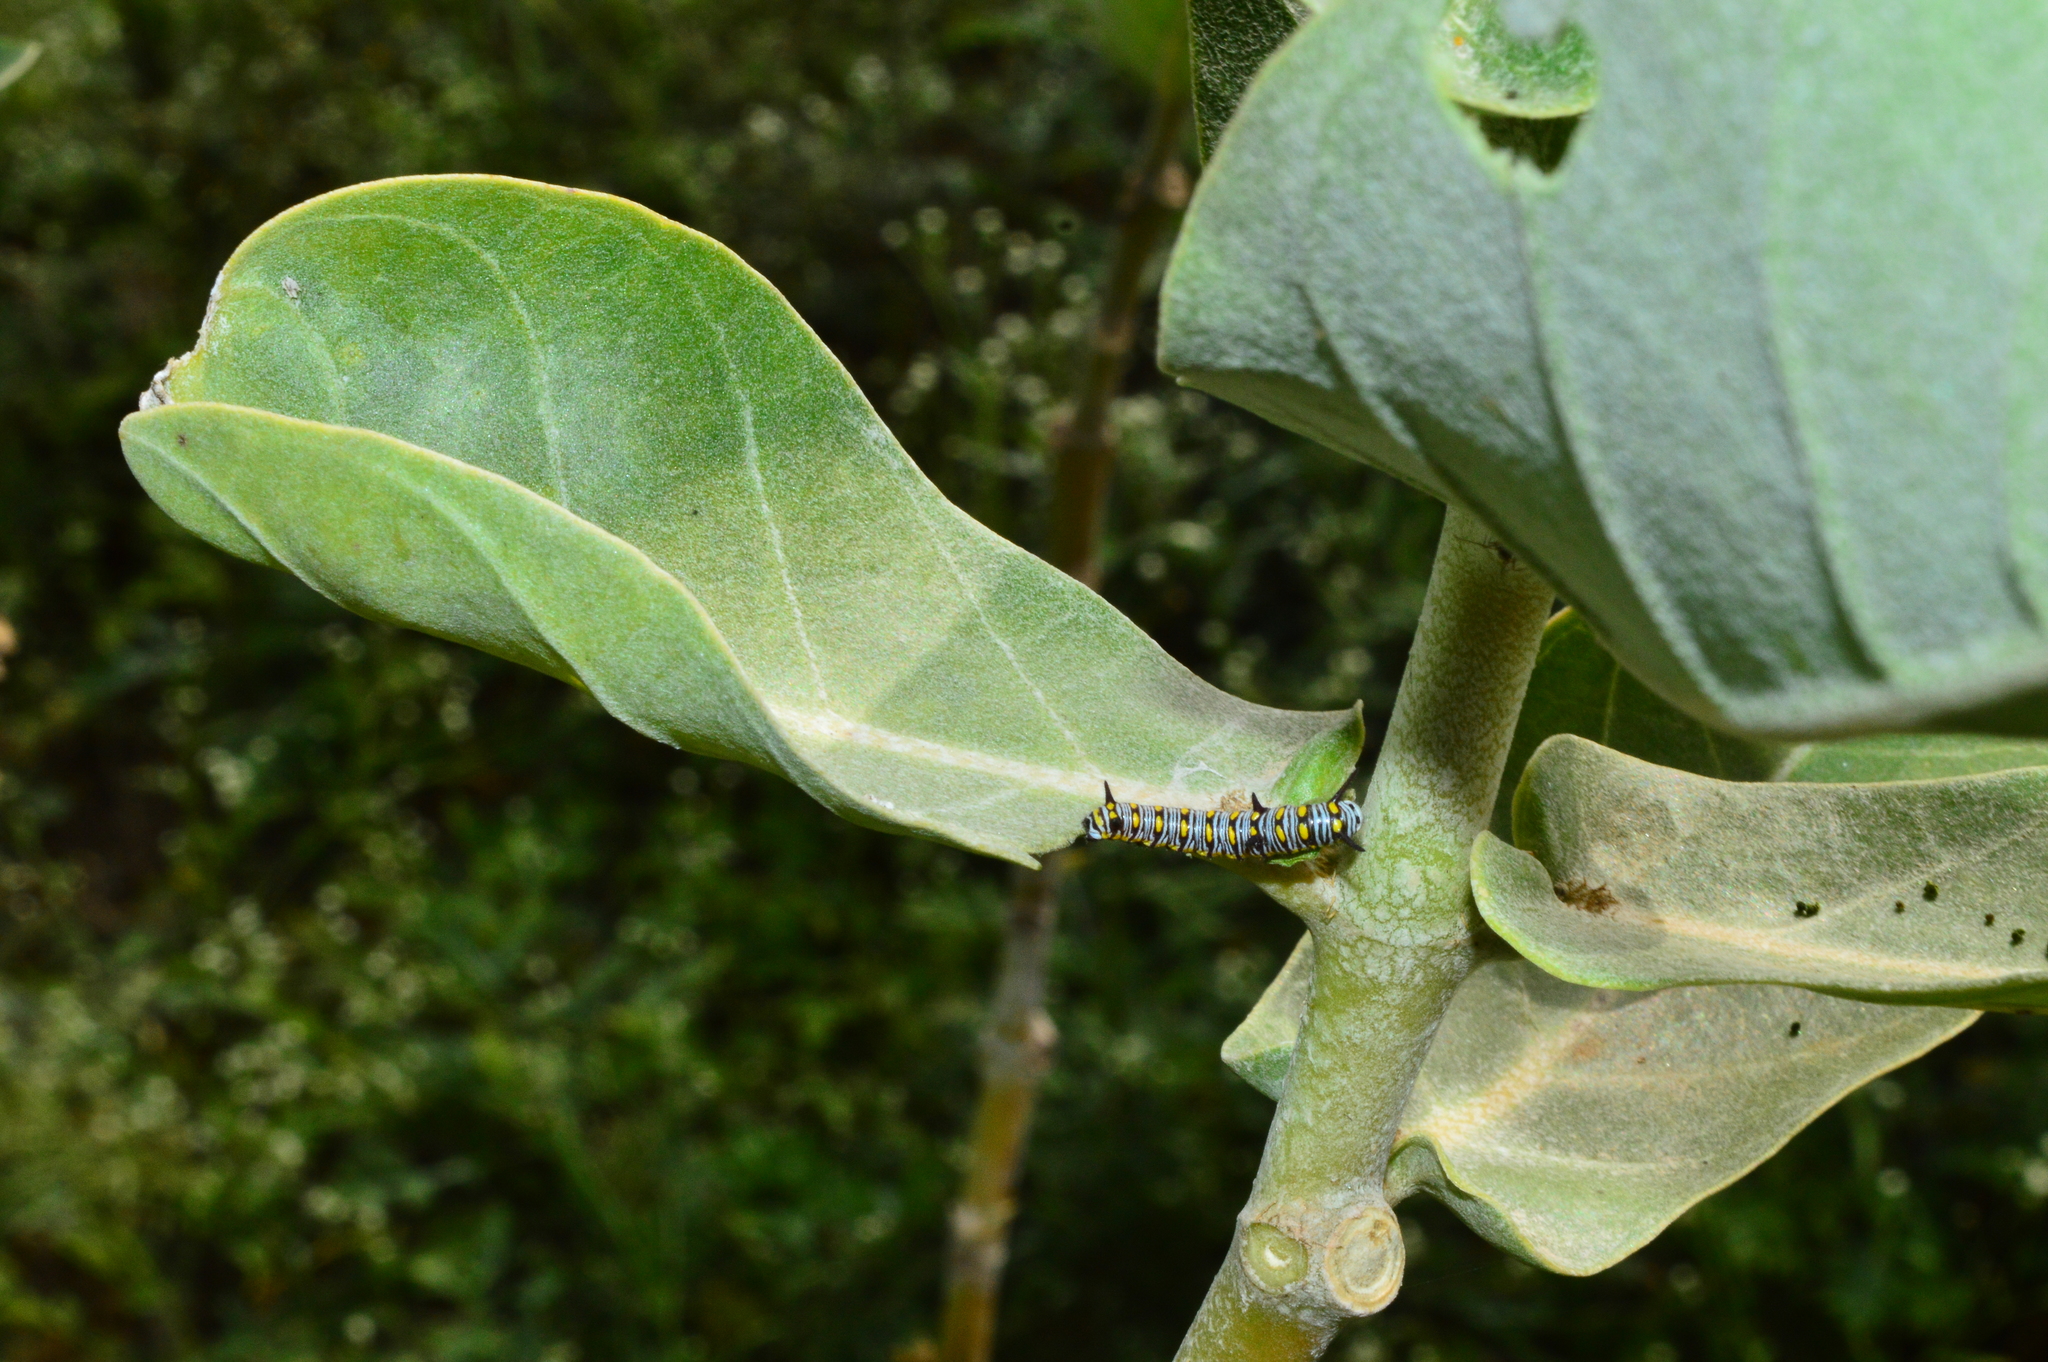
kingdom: Animalia
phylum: Arthropoda
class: Insecta
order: Lepidoptera
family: Nymphalidae
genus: Danaus
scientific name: Danaus chrysippus
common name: Plain tiger
